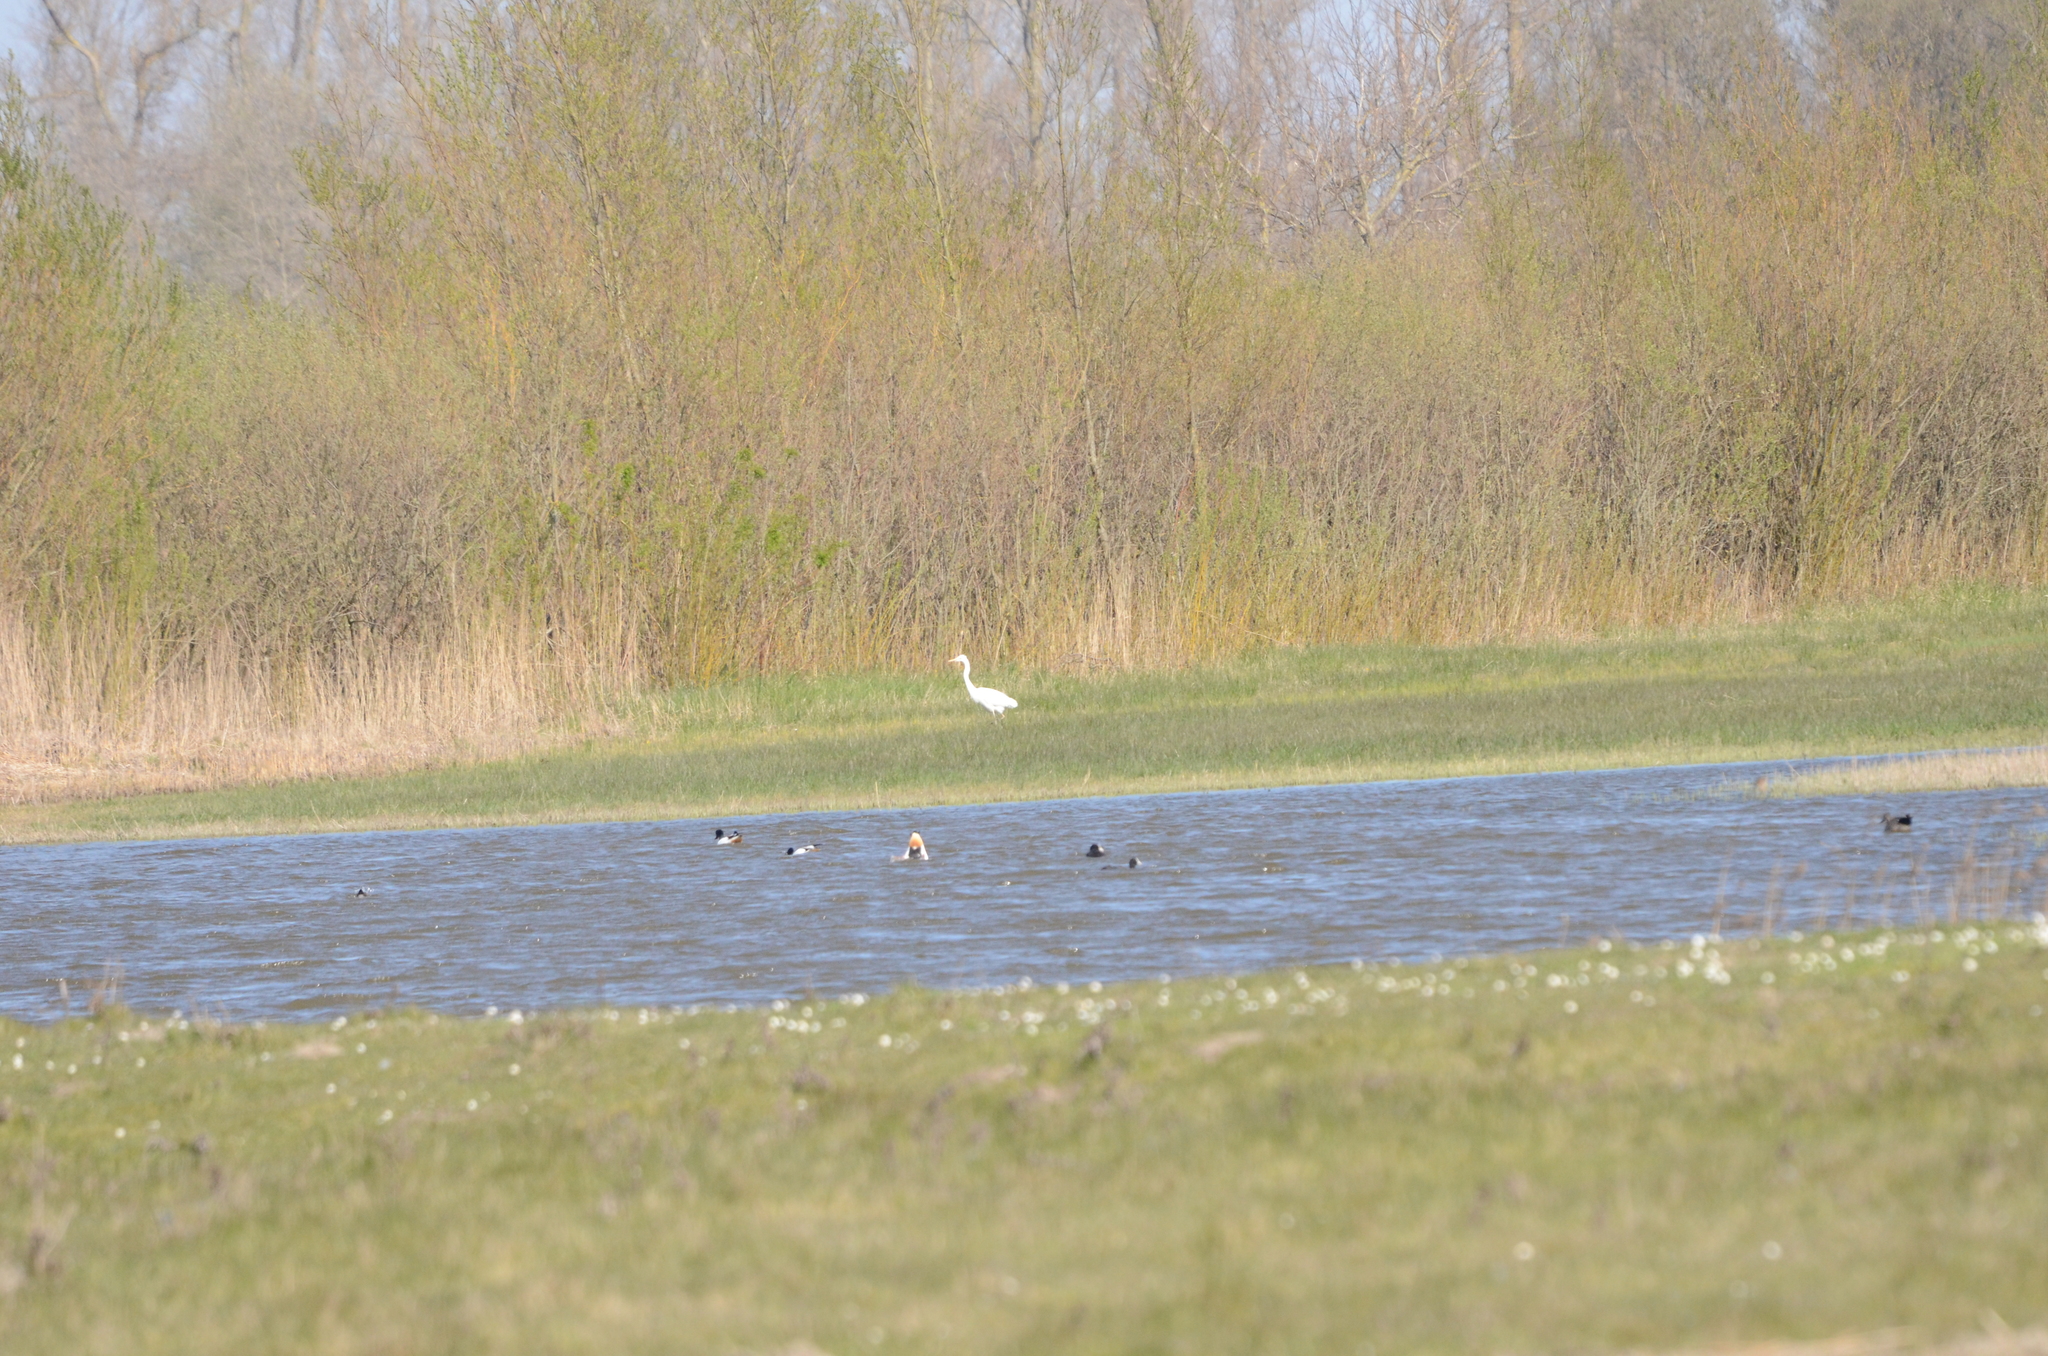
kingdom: Animalia
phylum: Chordata
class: Aves
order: Pelecaniformes
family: Ardeidae
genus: Ardea
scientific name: Ardea alba
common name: Great egret
